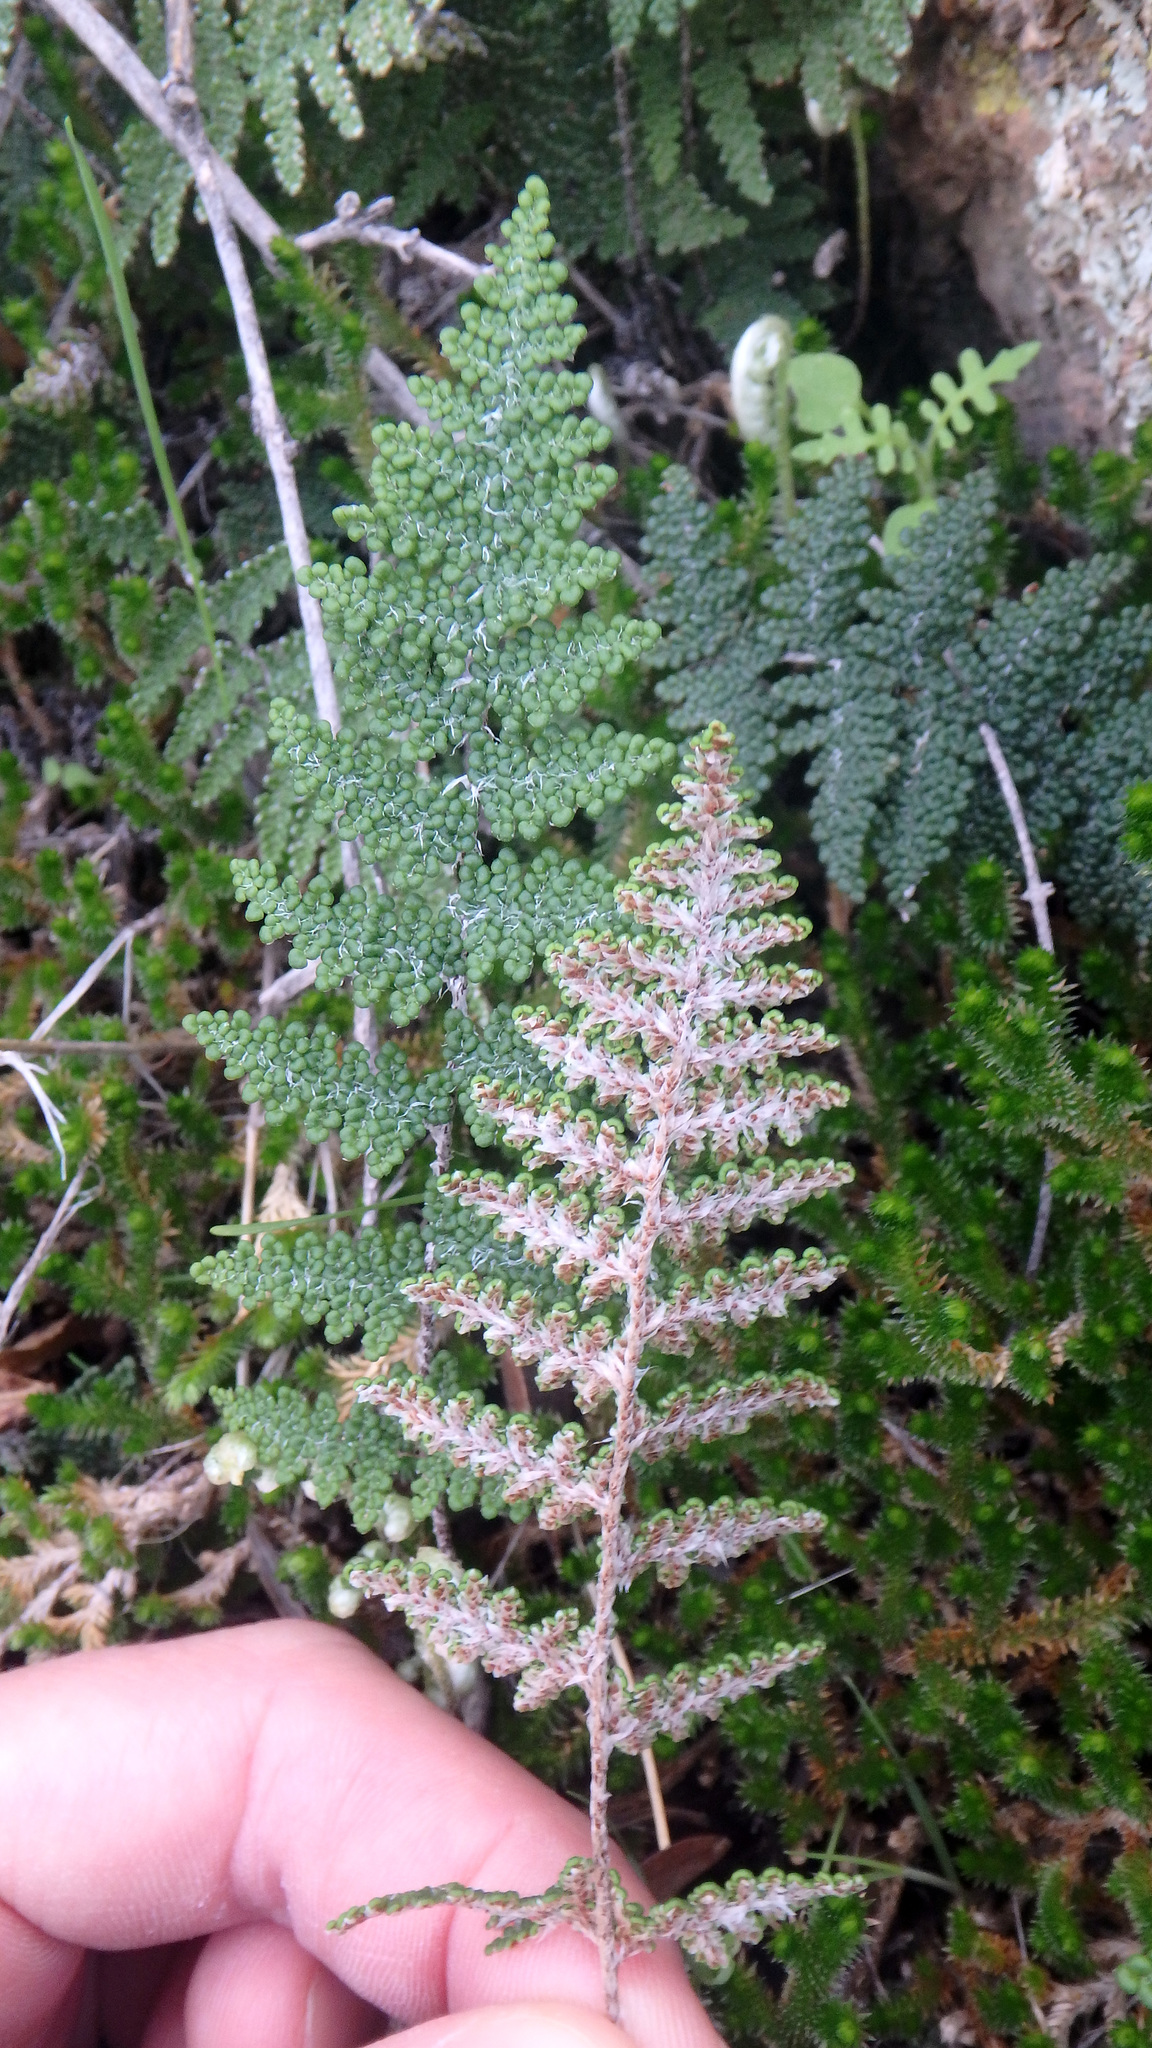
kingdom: Plantae
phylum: Tracheophyta
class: Polypodiopsida
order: Polypodiales
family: Pteridaceae
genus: Myriopteris
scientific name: Myriopteris covillei
